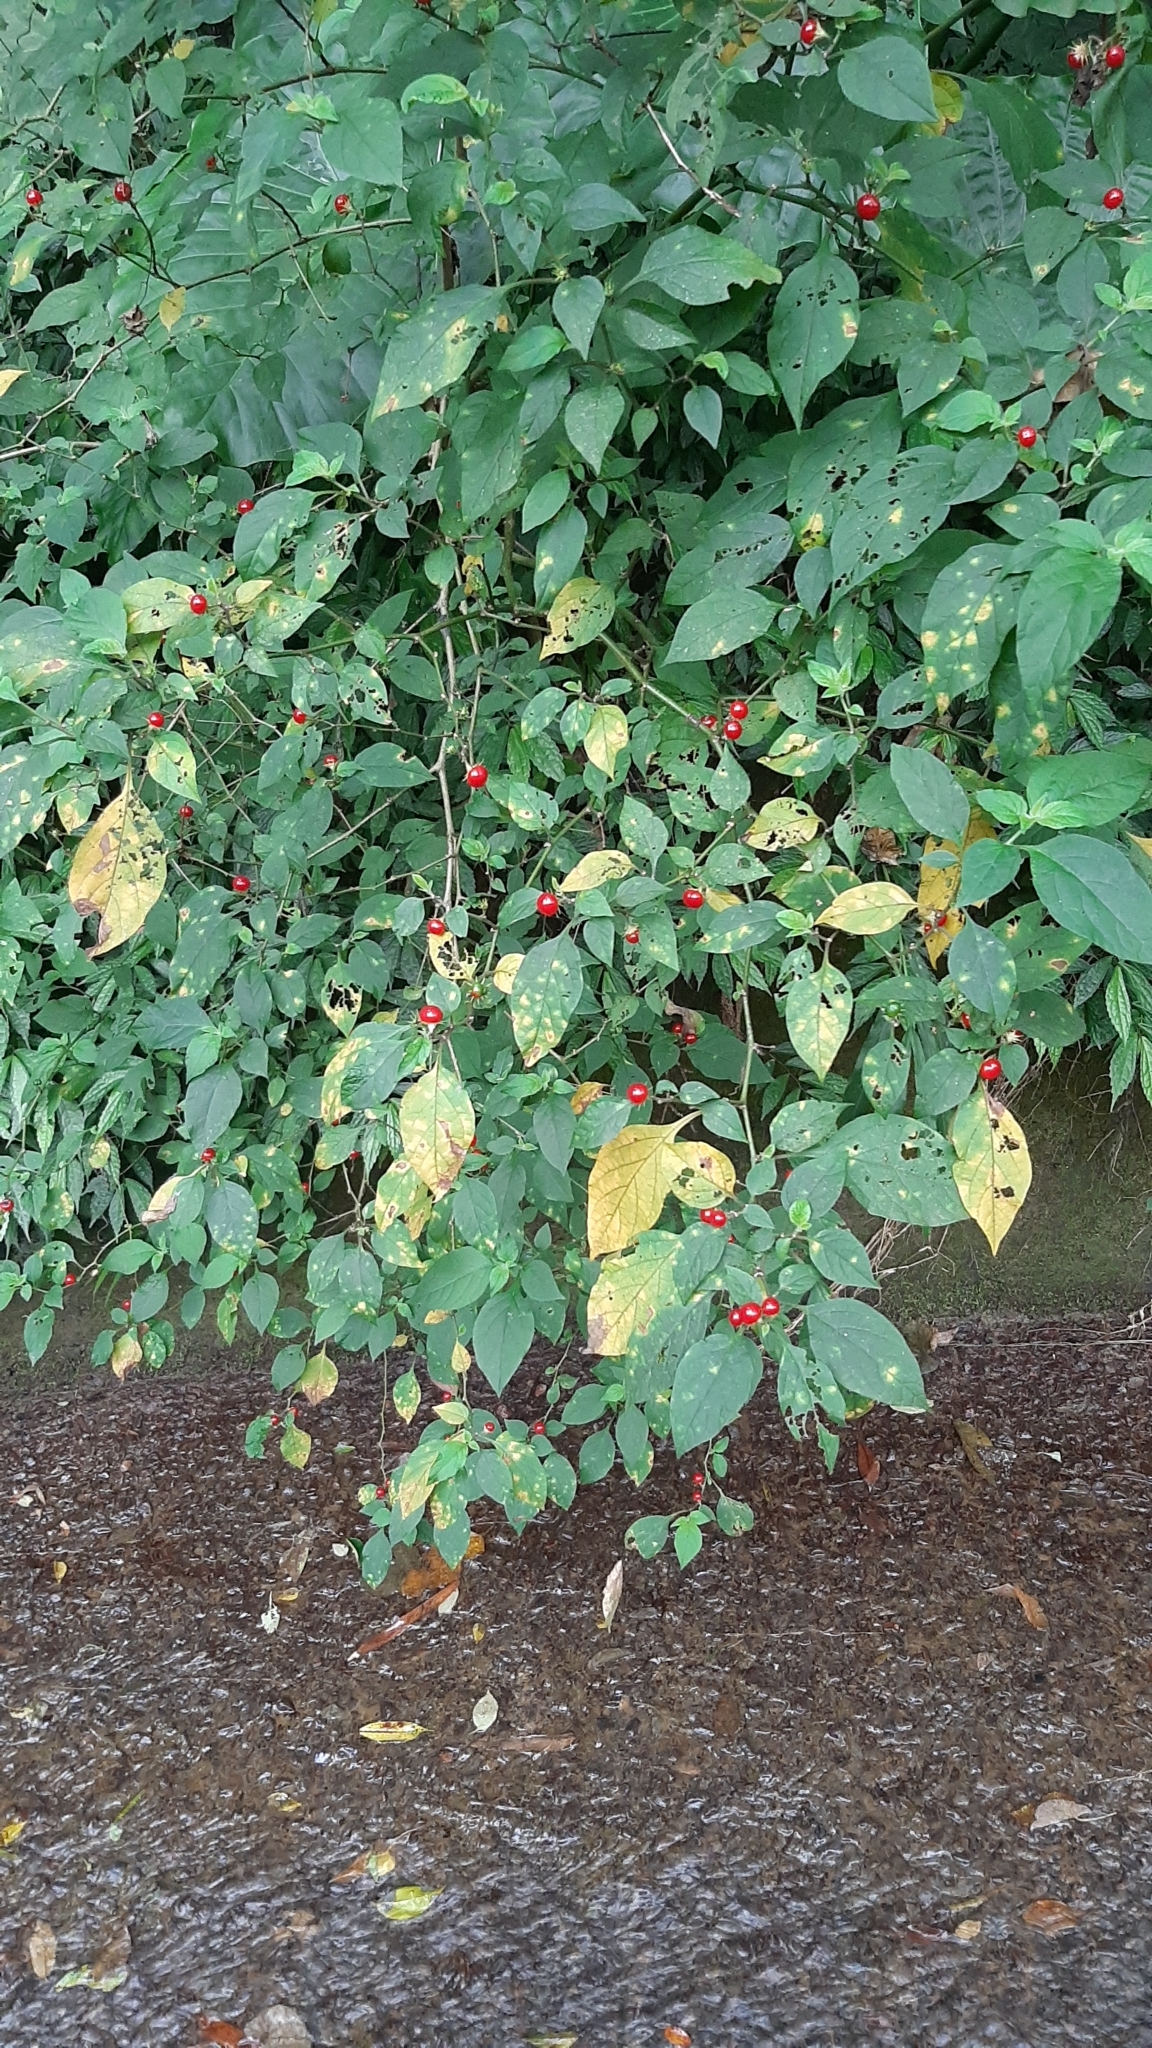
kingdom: Plantae
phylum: Tracheophyta
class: Magnoliopsida
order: Solanales
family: Solanaceae
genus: Lycianthes
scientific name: Lycianthes biflora
